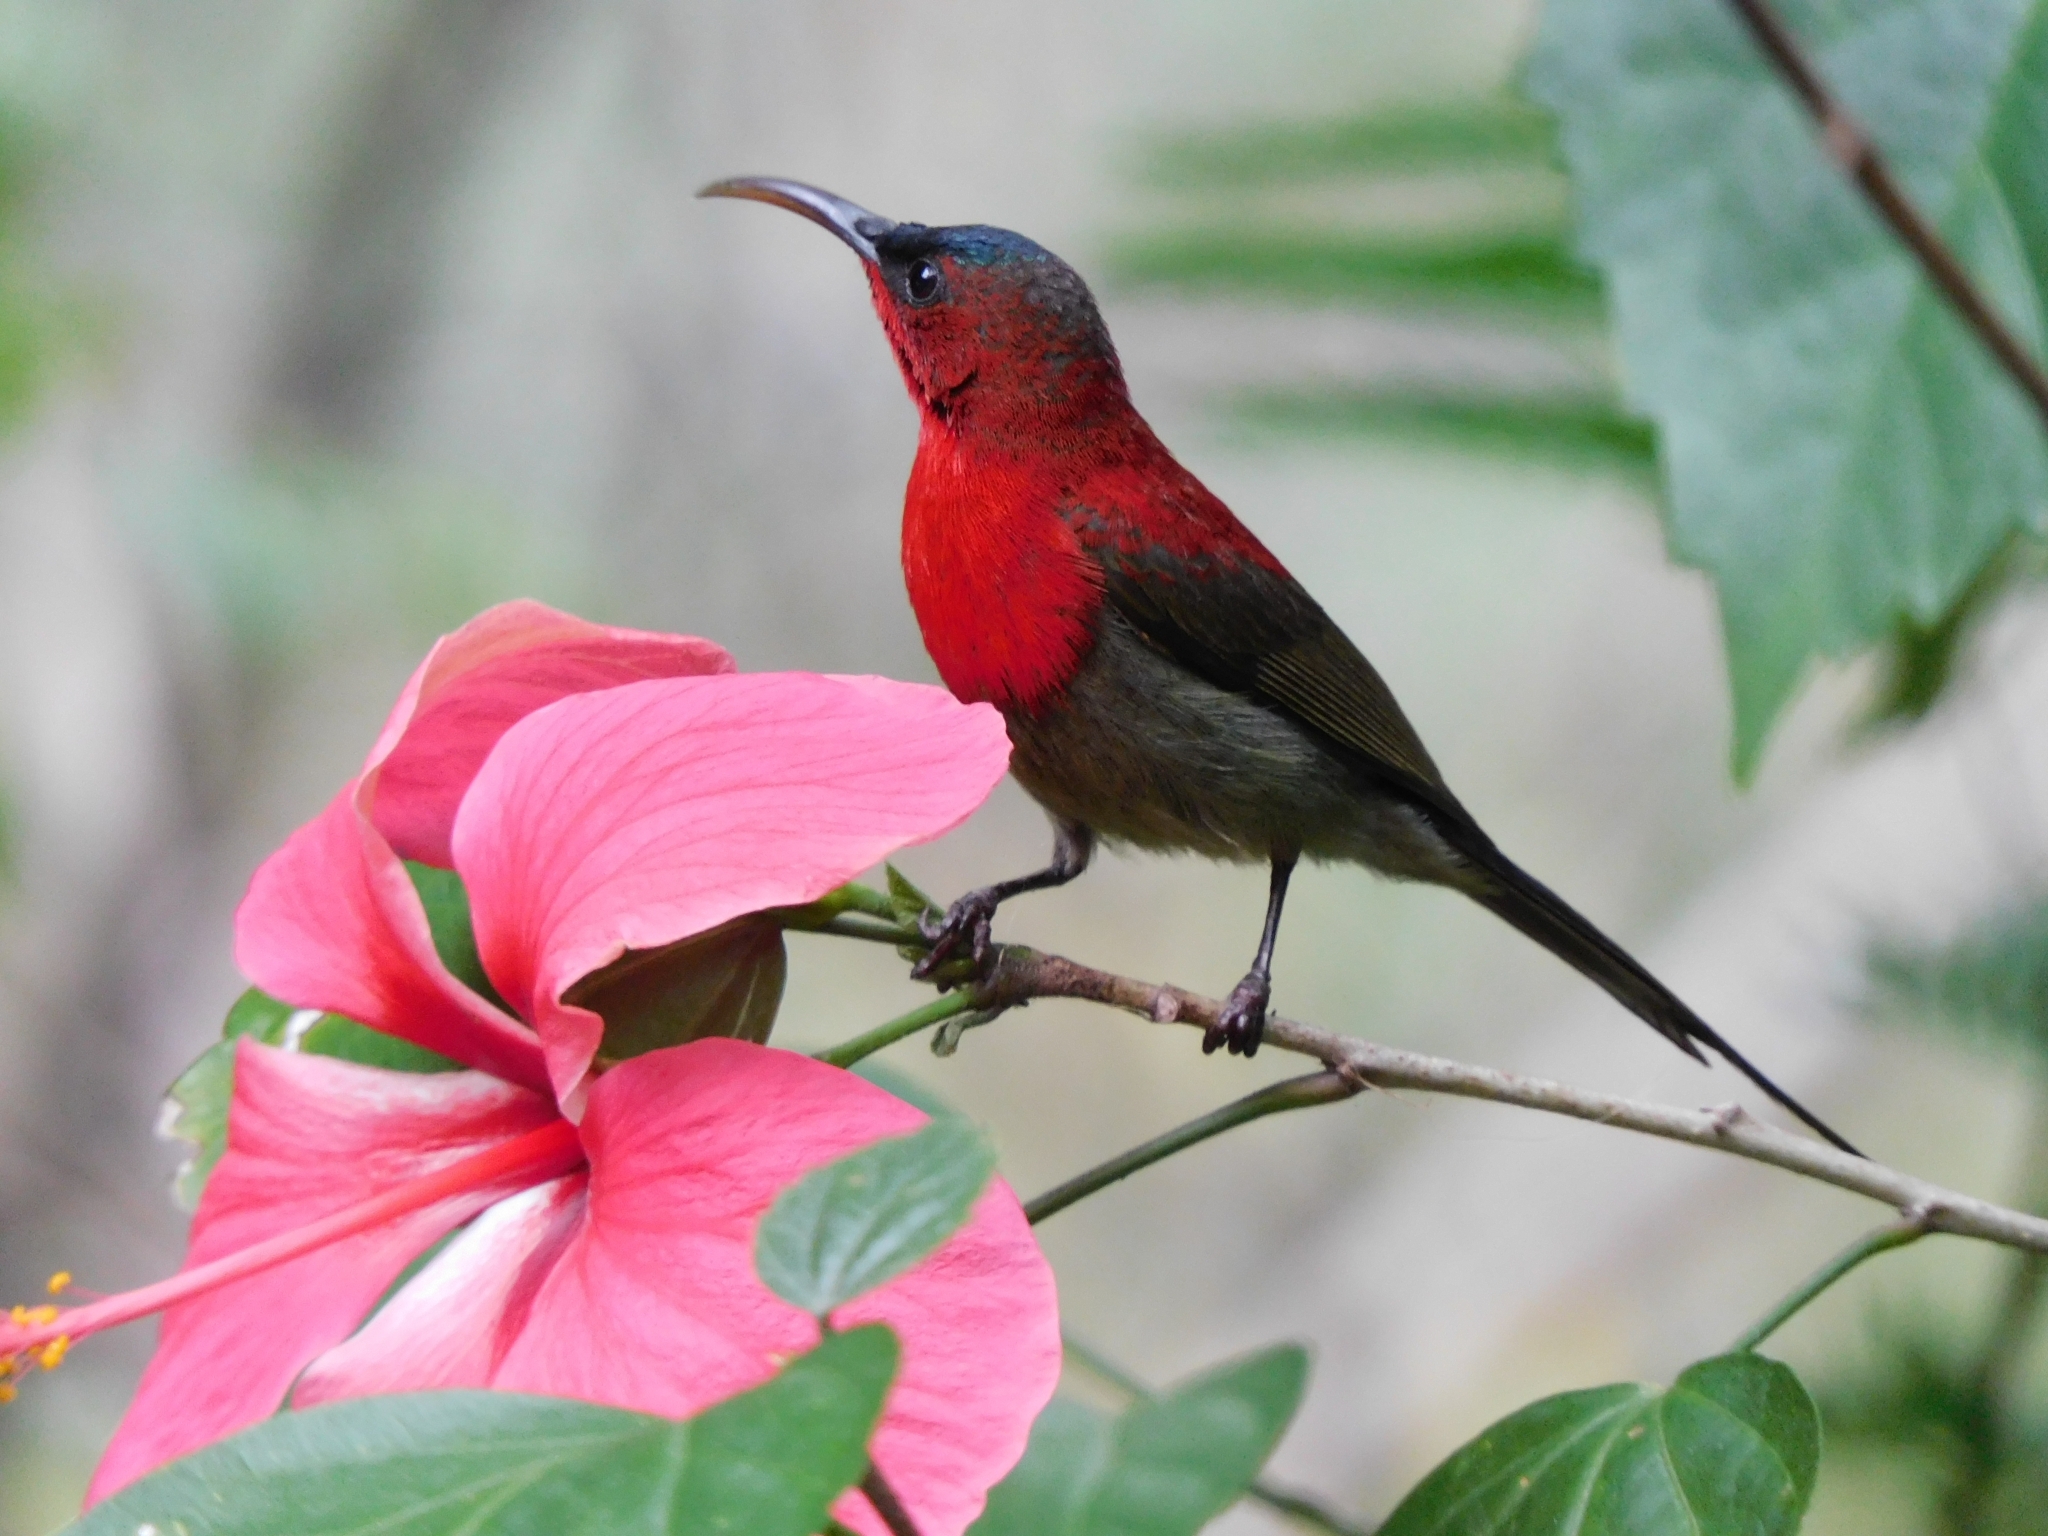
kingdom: Animalia
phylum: Chordata
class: Aves
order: Passeriformes
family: Nectariniidae
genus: Aethopyga
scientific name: Aethopyga siparaja
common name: Crimson sunbird
